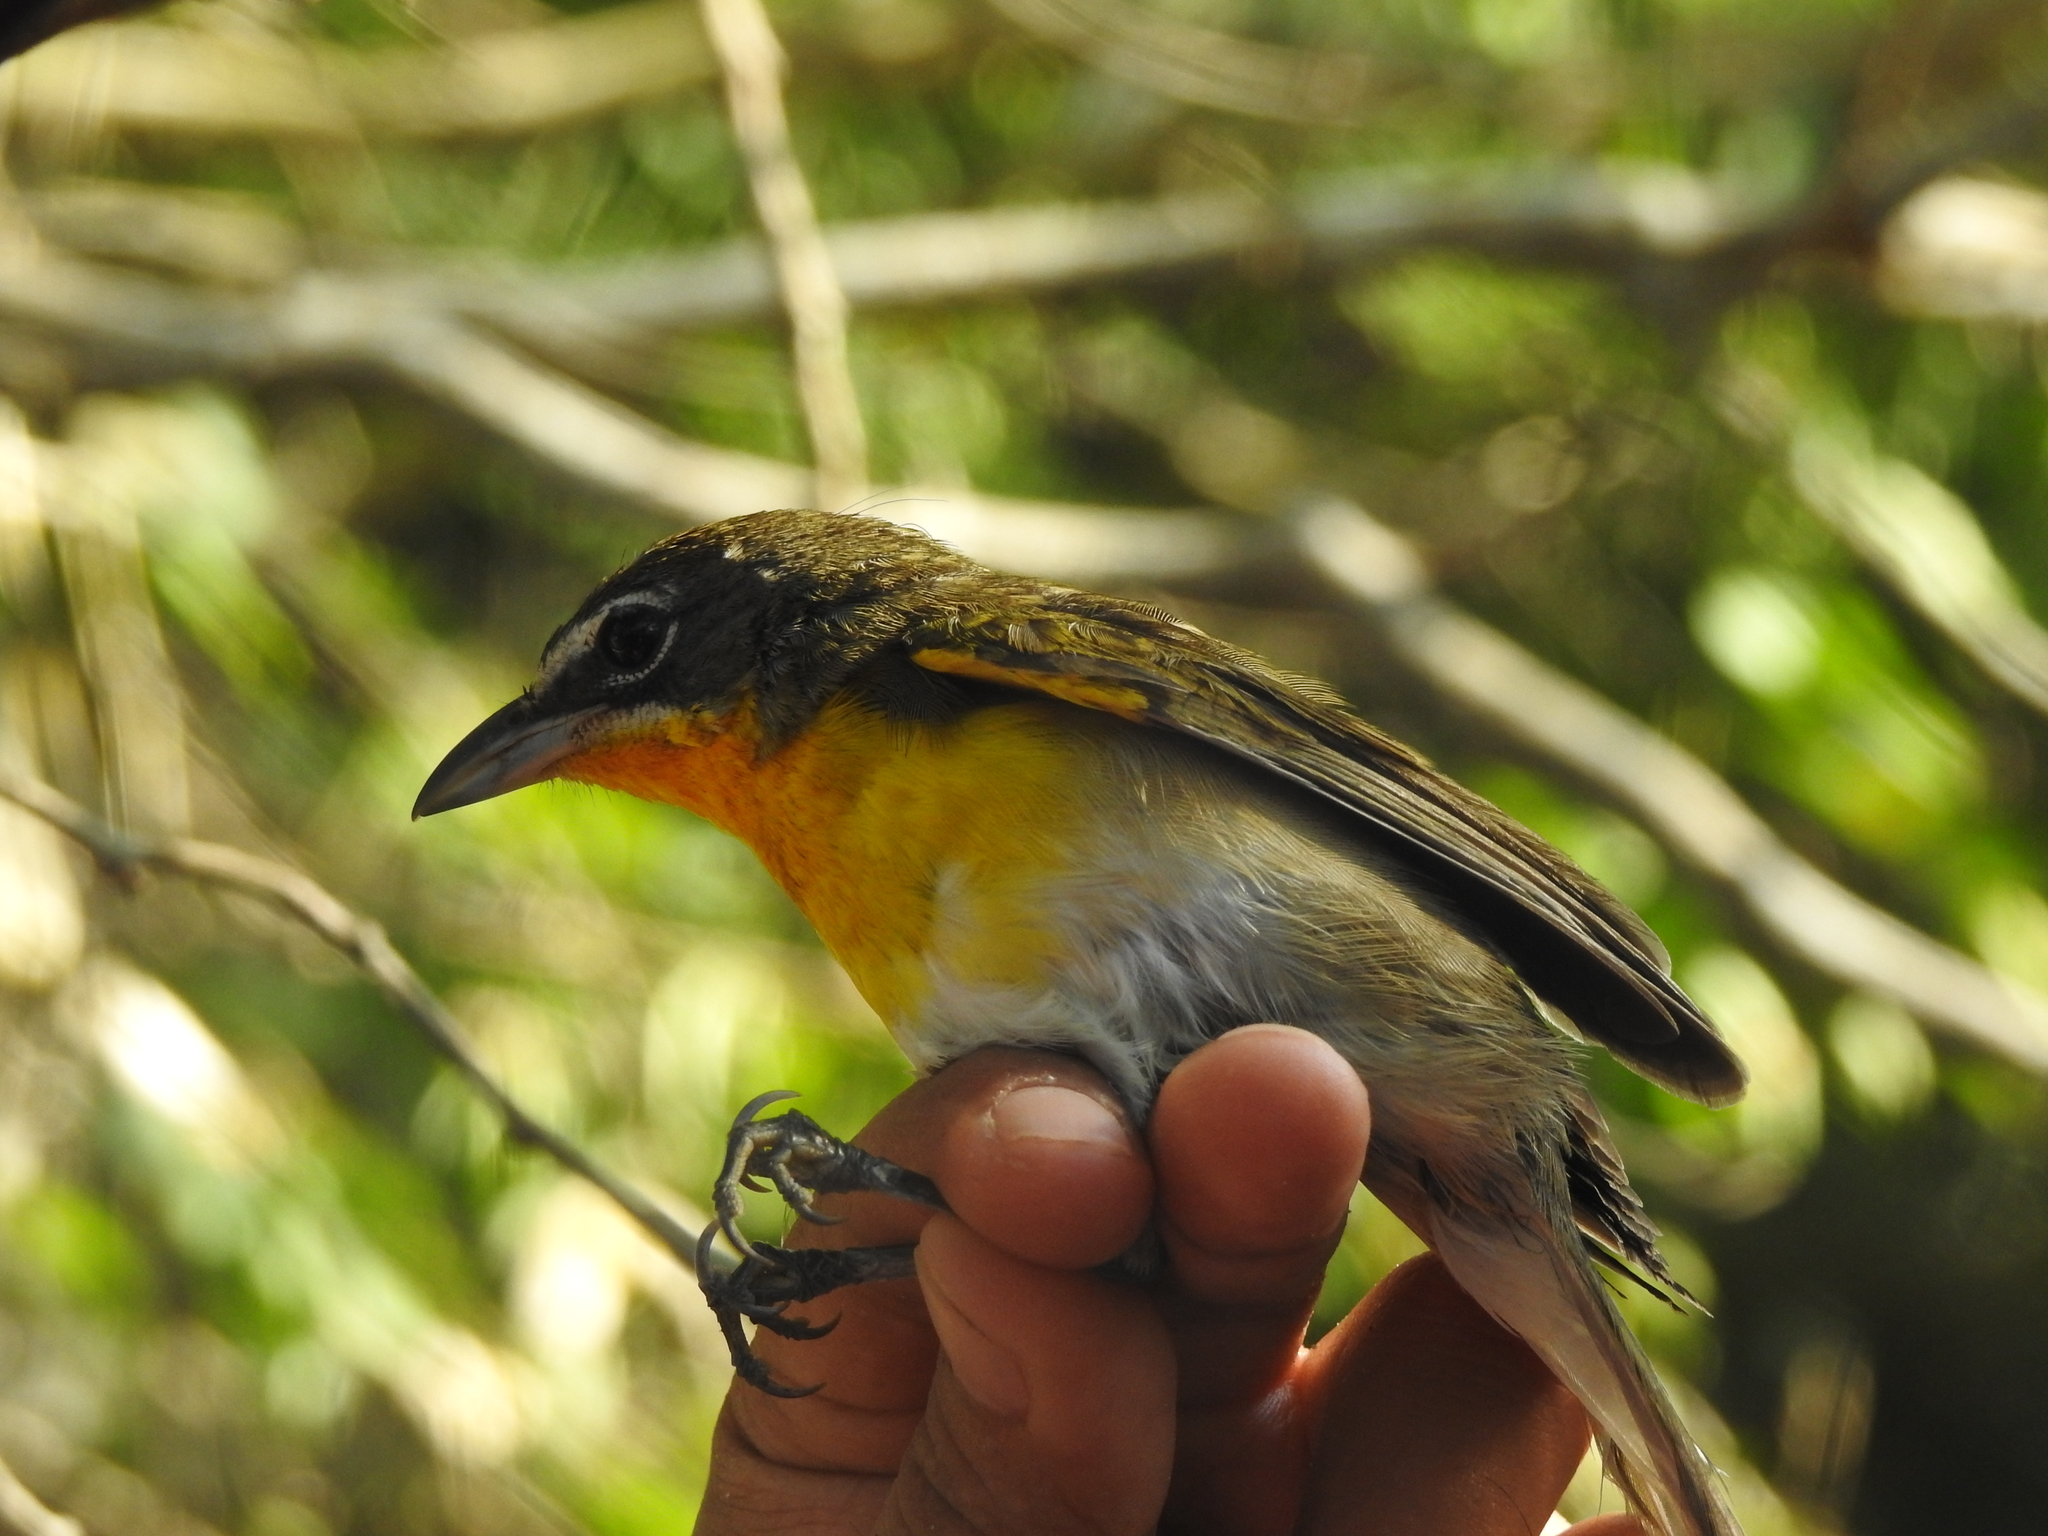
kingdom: Animalia
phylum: Chordata
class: Aves
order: Passeriformes
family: Parulidae
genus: Icteria
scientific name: Icteria virens
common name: Yellow-breasted chat
